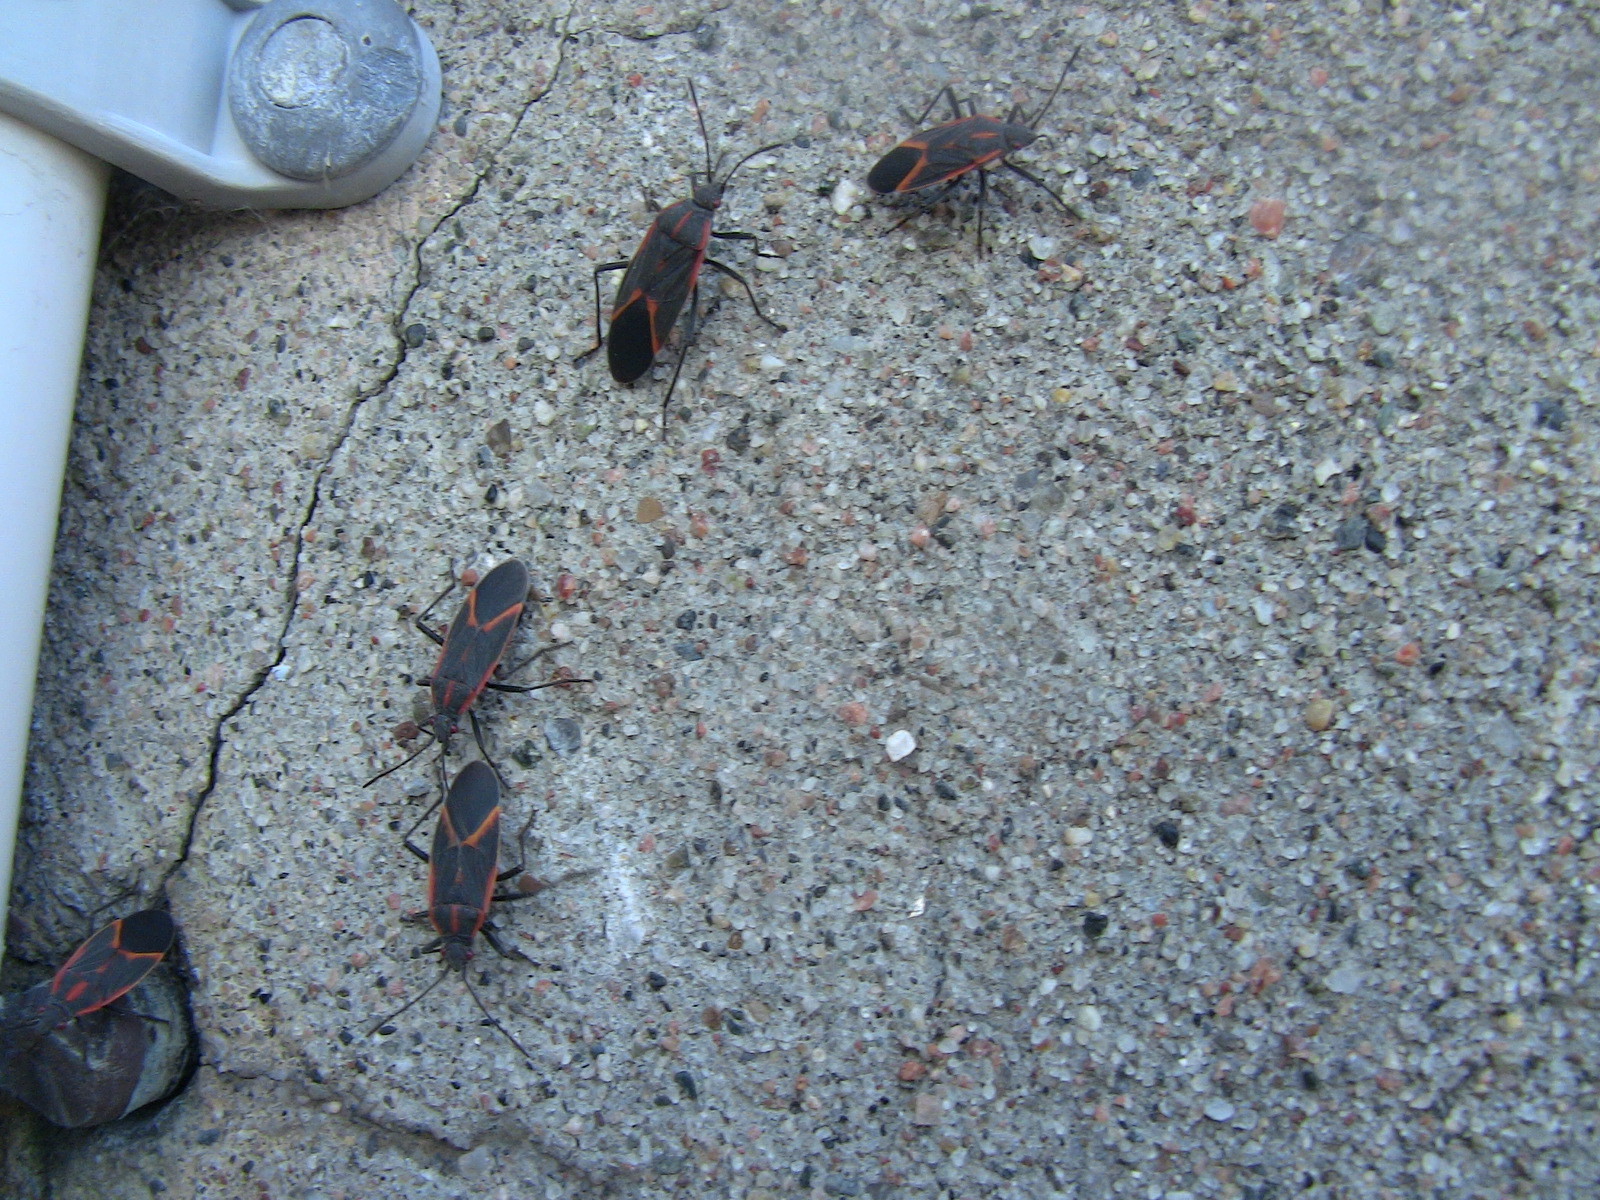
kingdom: Animalia
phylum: Arthropoda
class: Insecta
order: Hemiptera
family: Rhopalidae
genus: Boisea
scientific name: Boisea trivittata
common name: Boxelder bug
